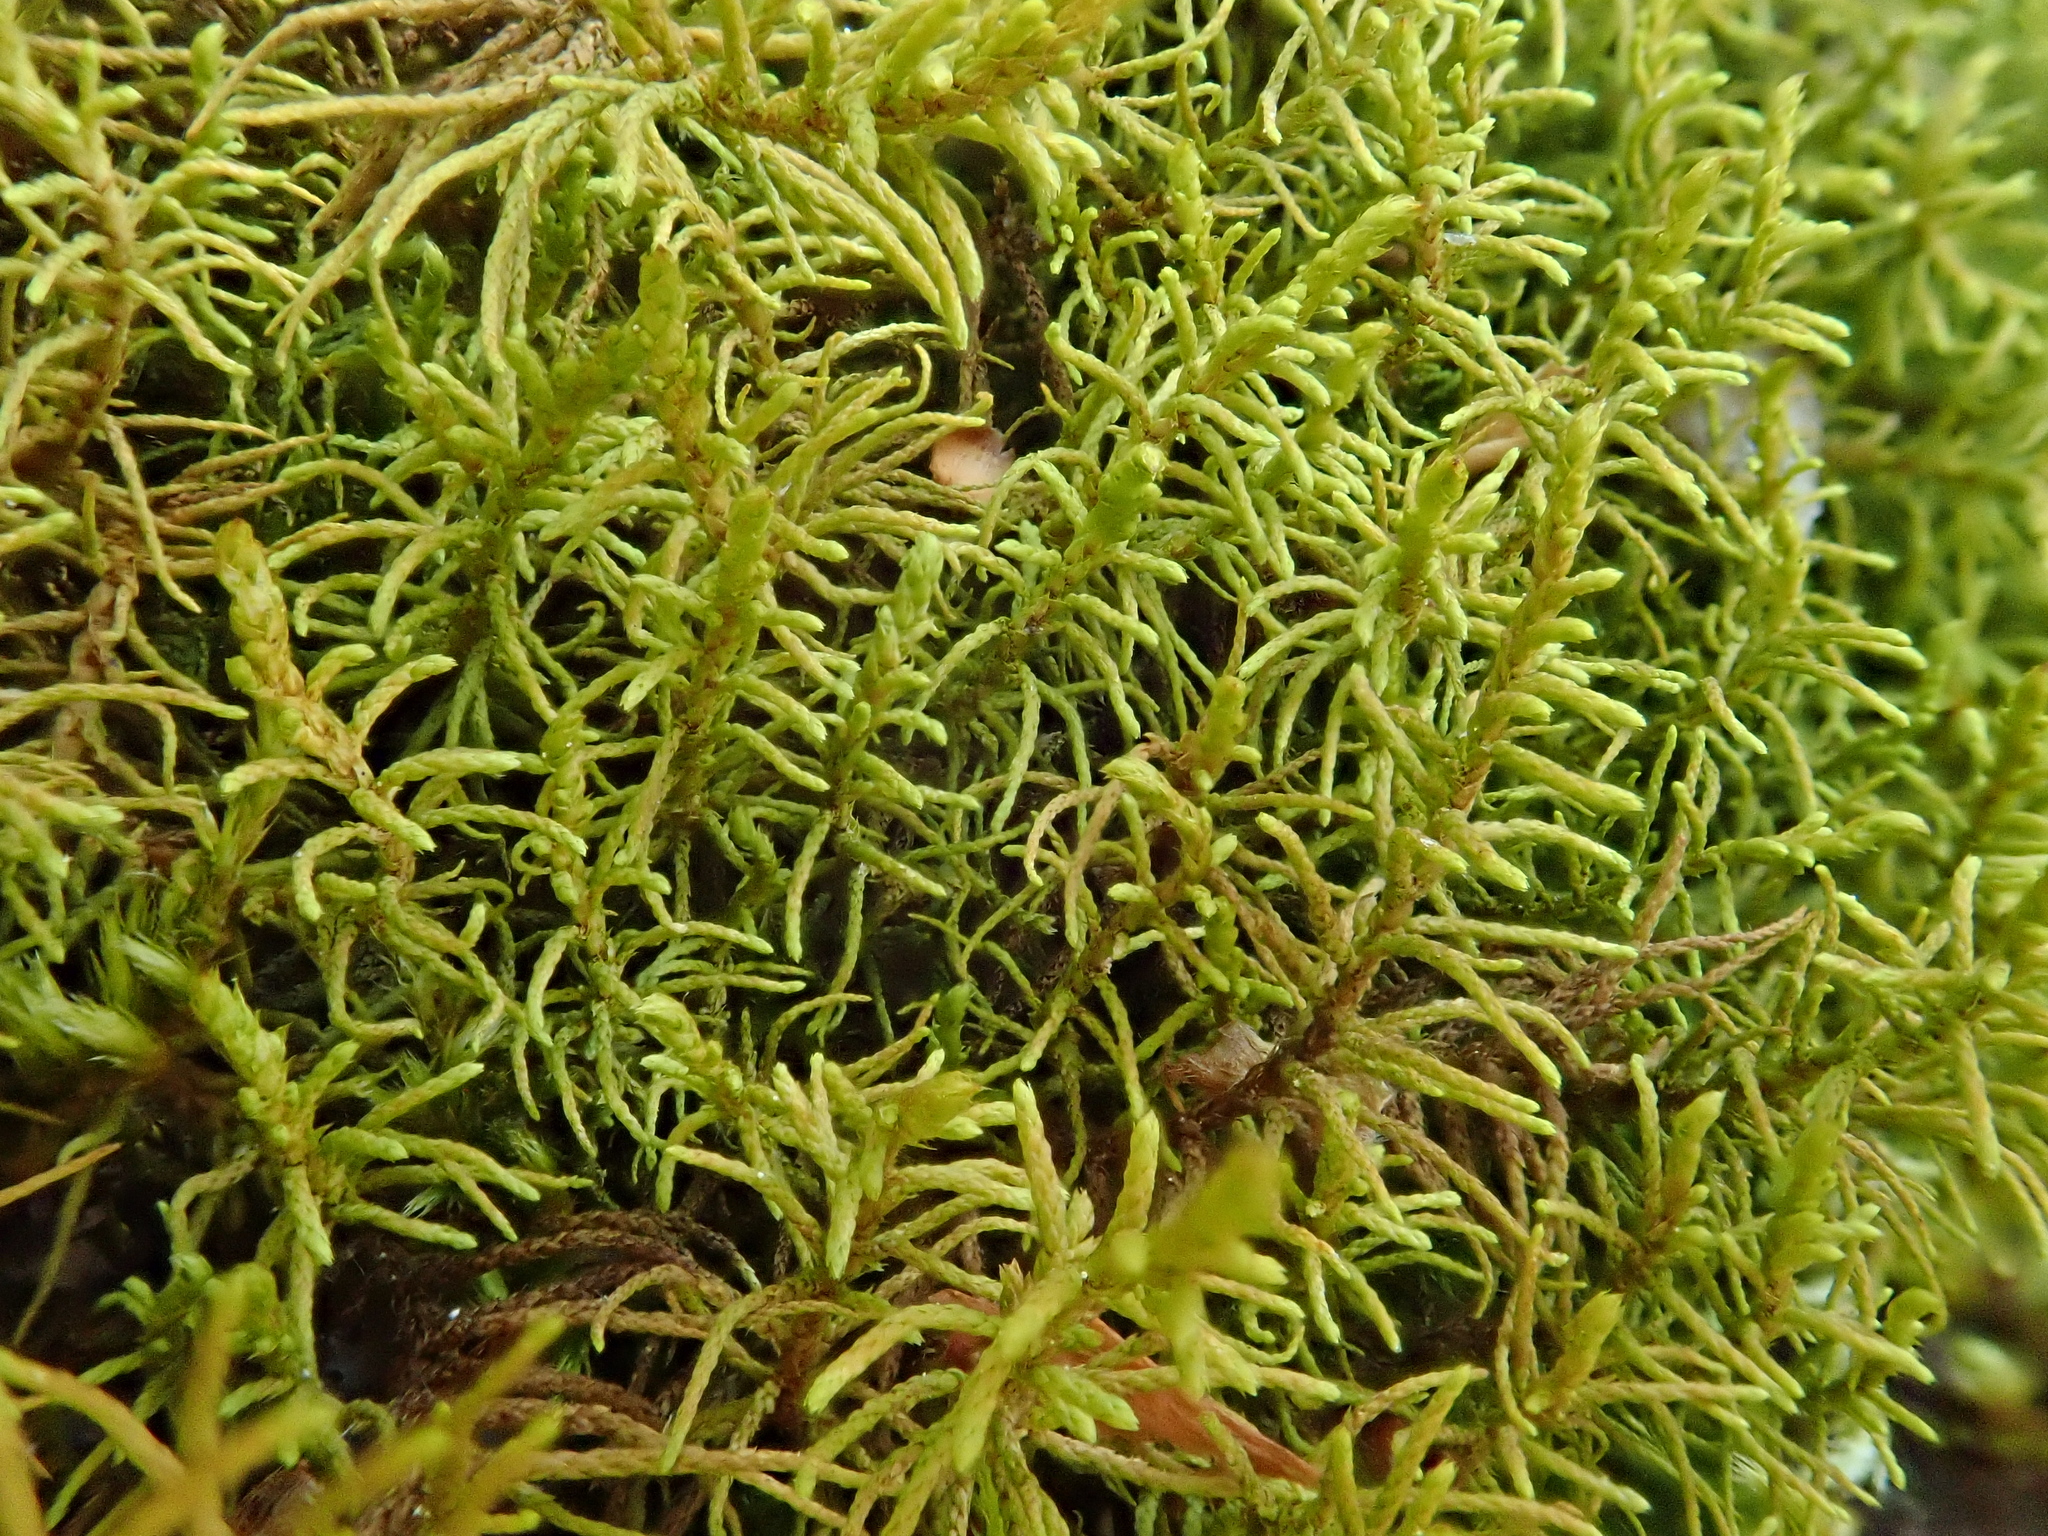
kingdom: Plantae
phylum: Bryophyta
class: Bryopsida
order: Hypnales
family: Thuidiaceae
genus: Abietinella
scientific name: Abietinella abietina
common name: Wiry fern moss
